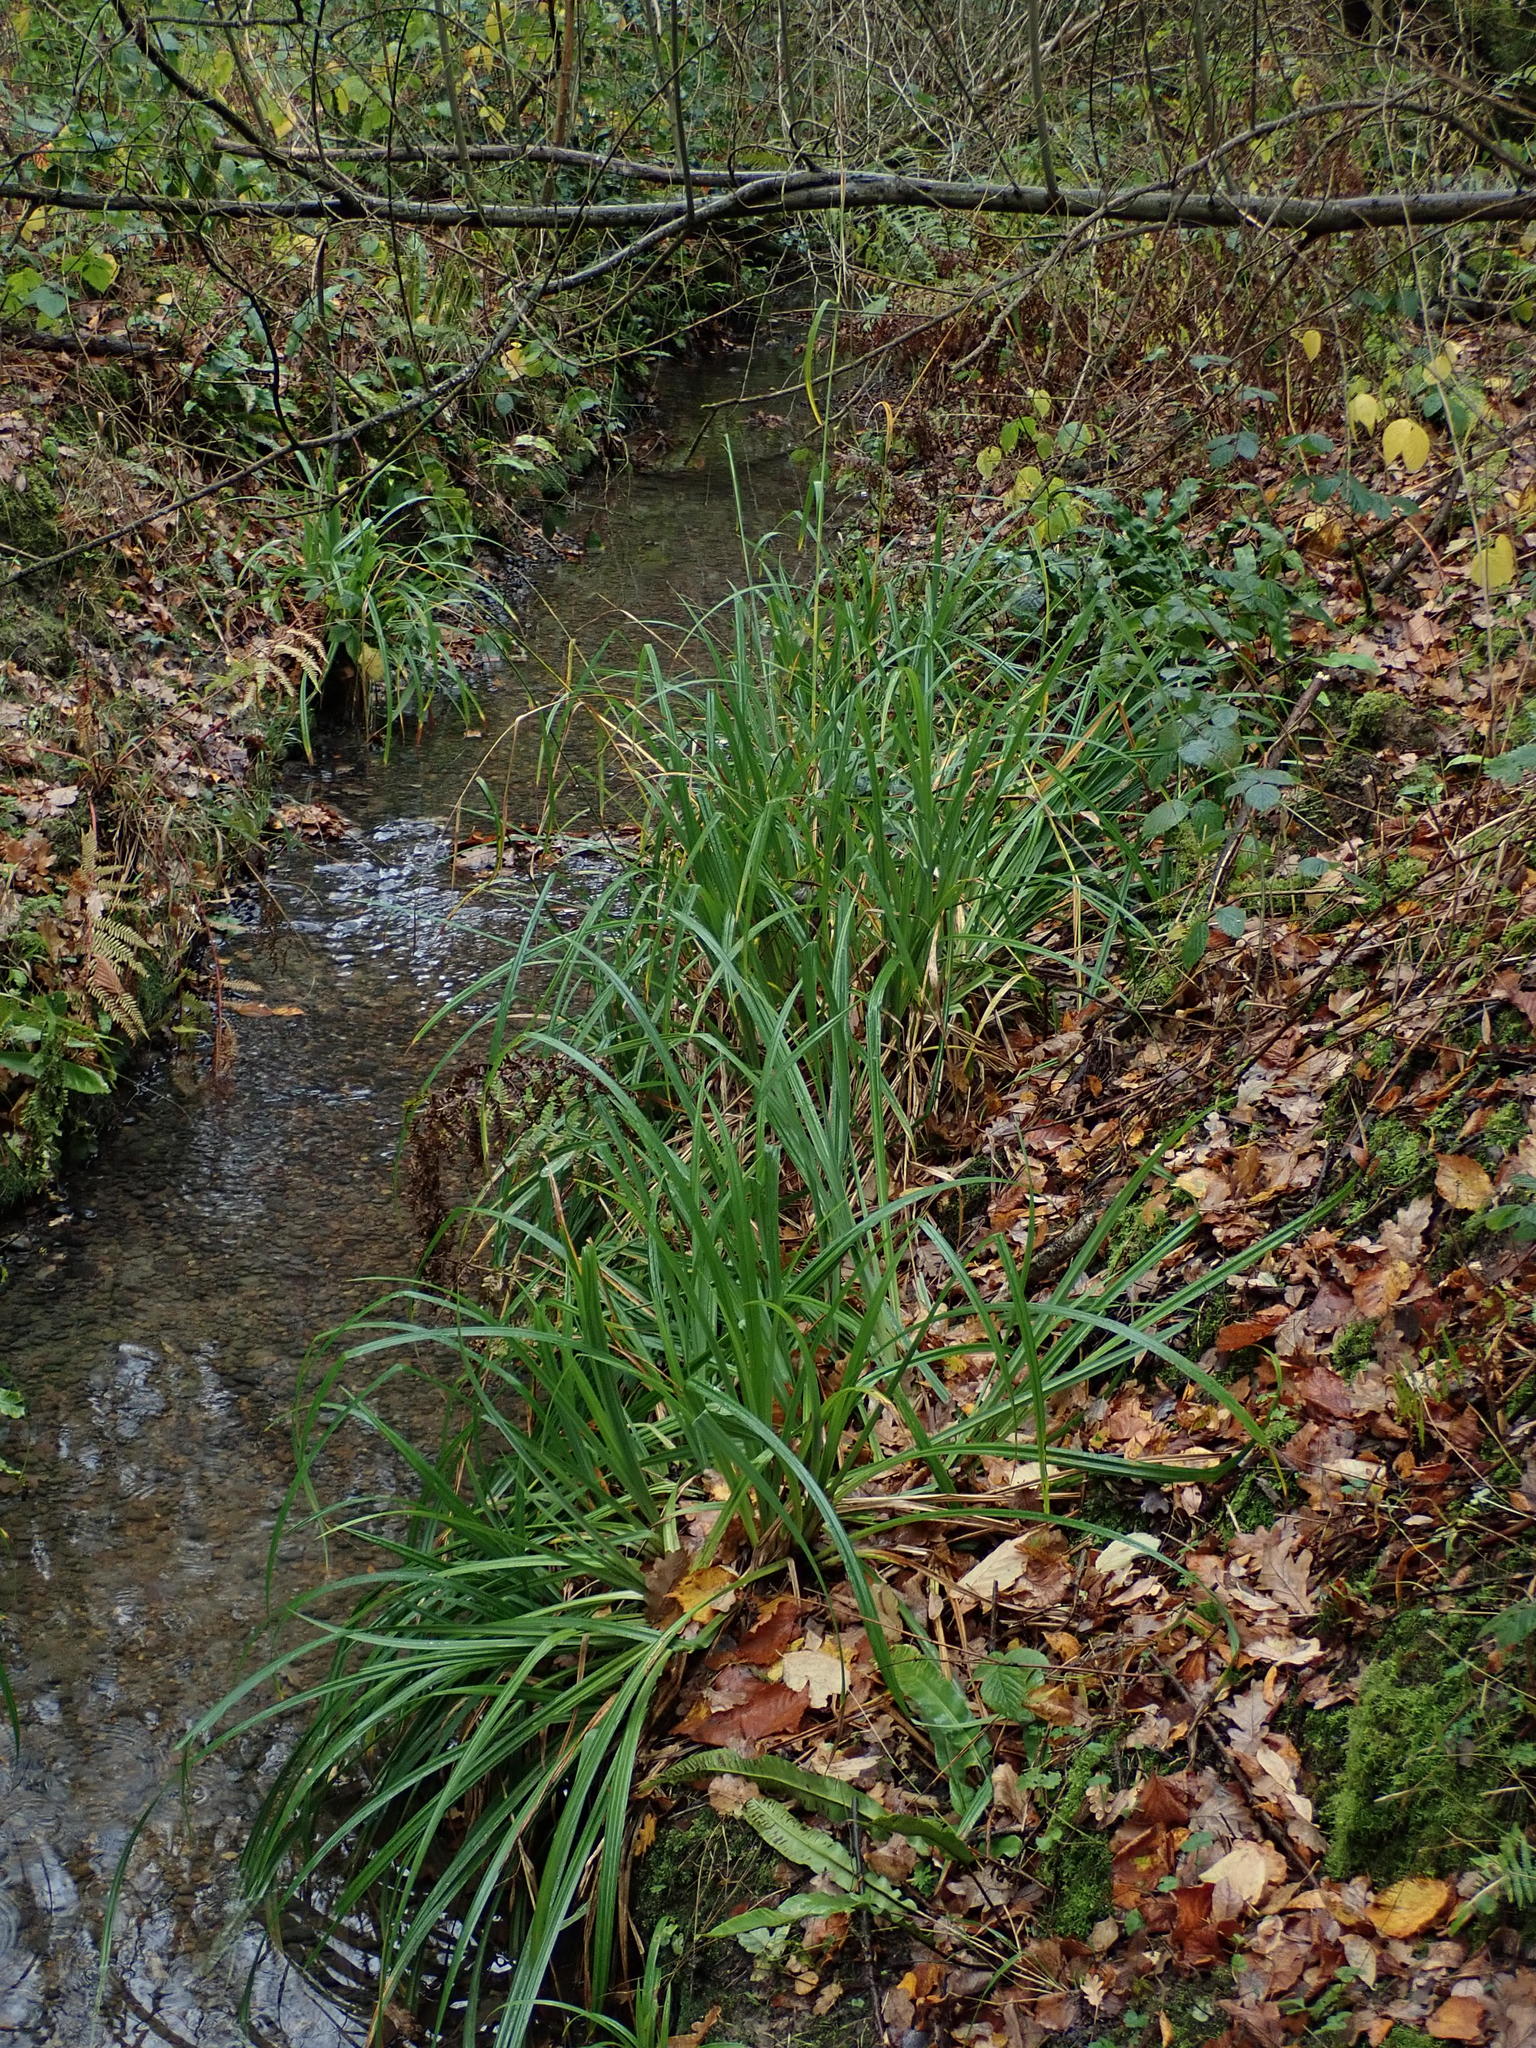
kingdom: Plantae
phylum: Tracheophyta
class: Liliopsida
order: Poales
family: Cyperaceae
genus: Carex
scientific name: Carex pendula
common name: Pendulous sedge
